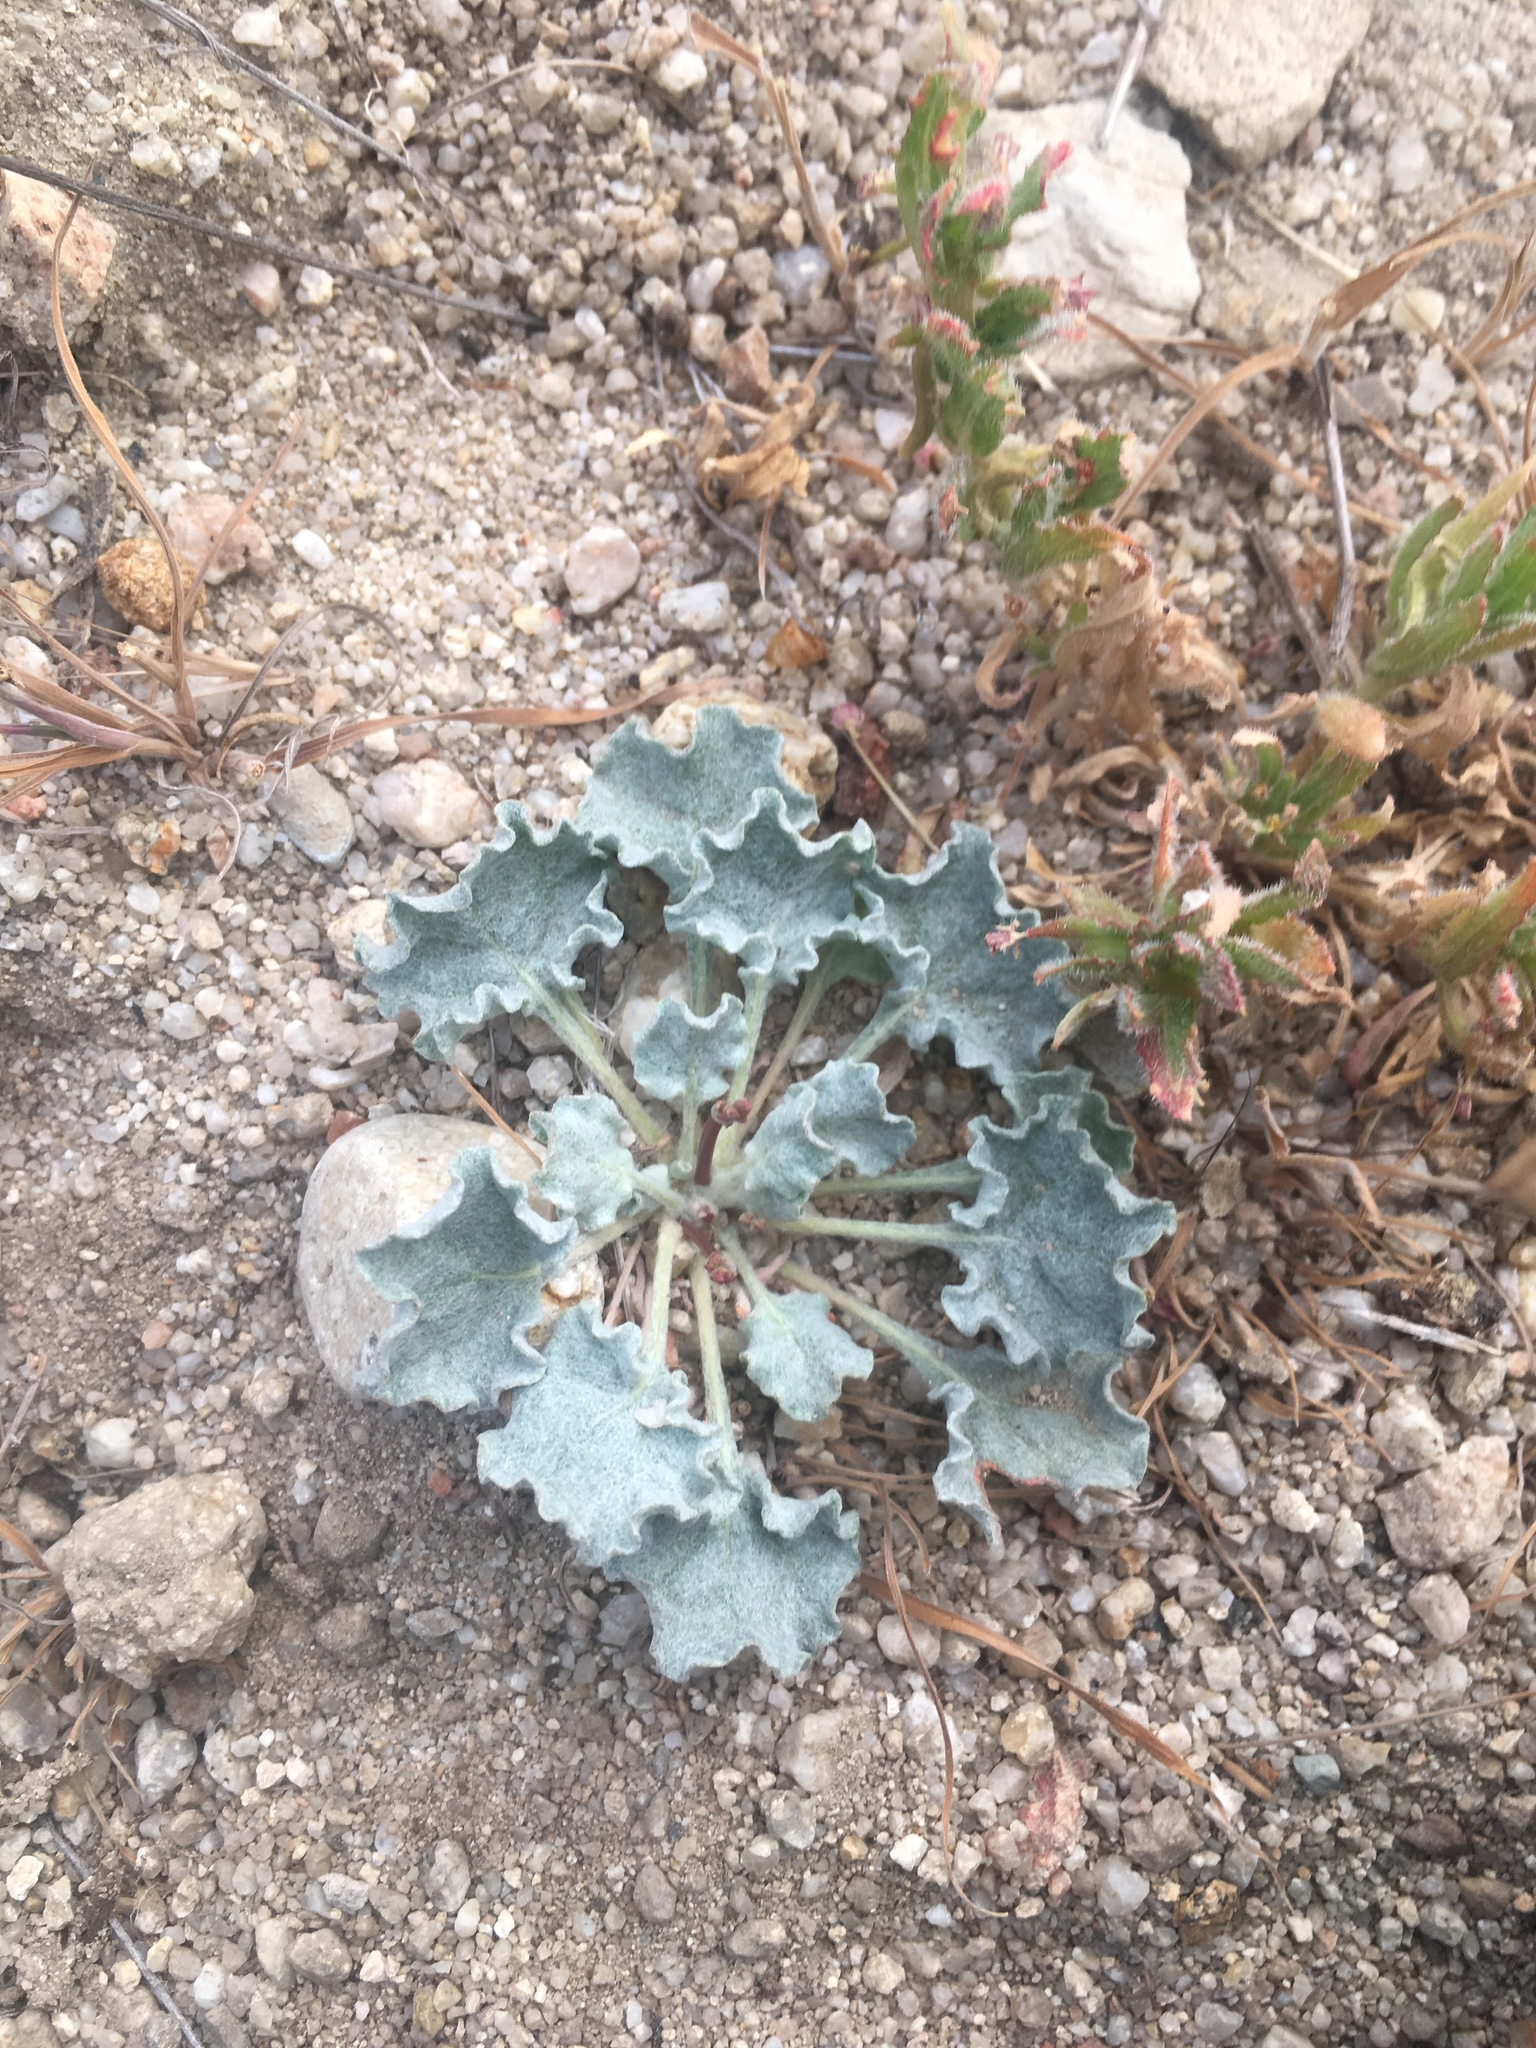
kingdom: Plantae
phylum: Tracheophyta
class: Magnoliopsida
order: Caryophyllales
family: Polygonaceae
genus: Eriogonum
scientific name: Eriogonum elegans
